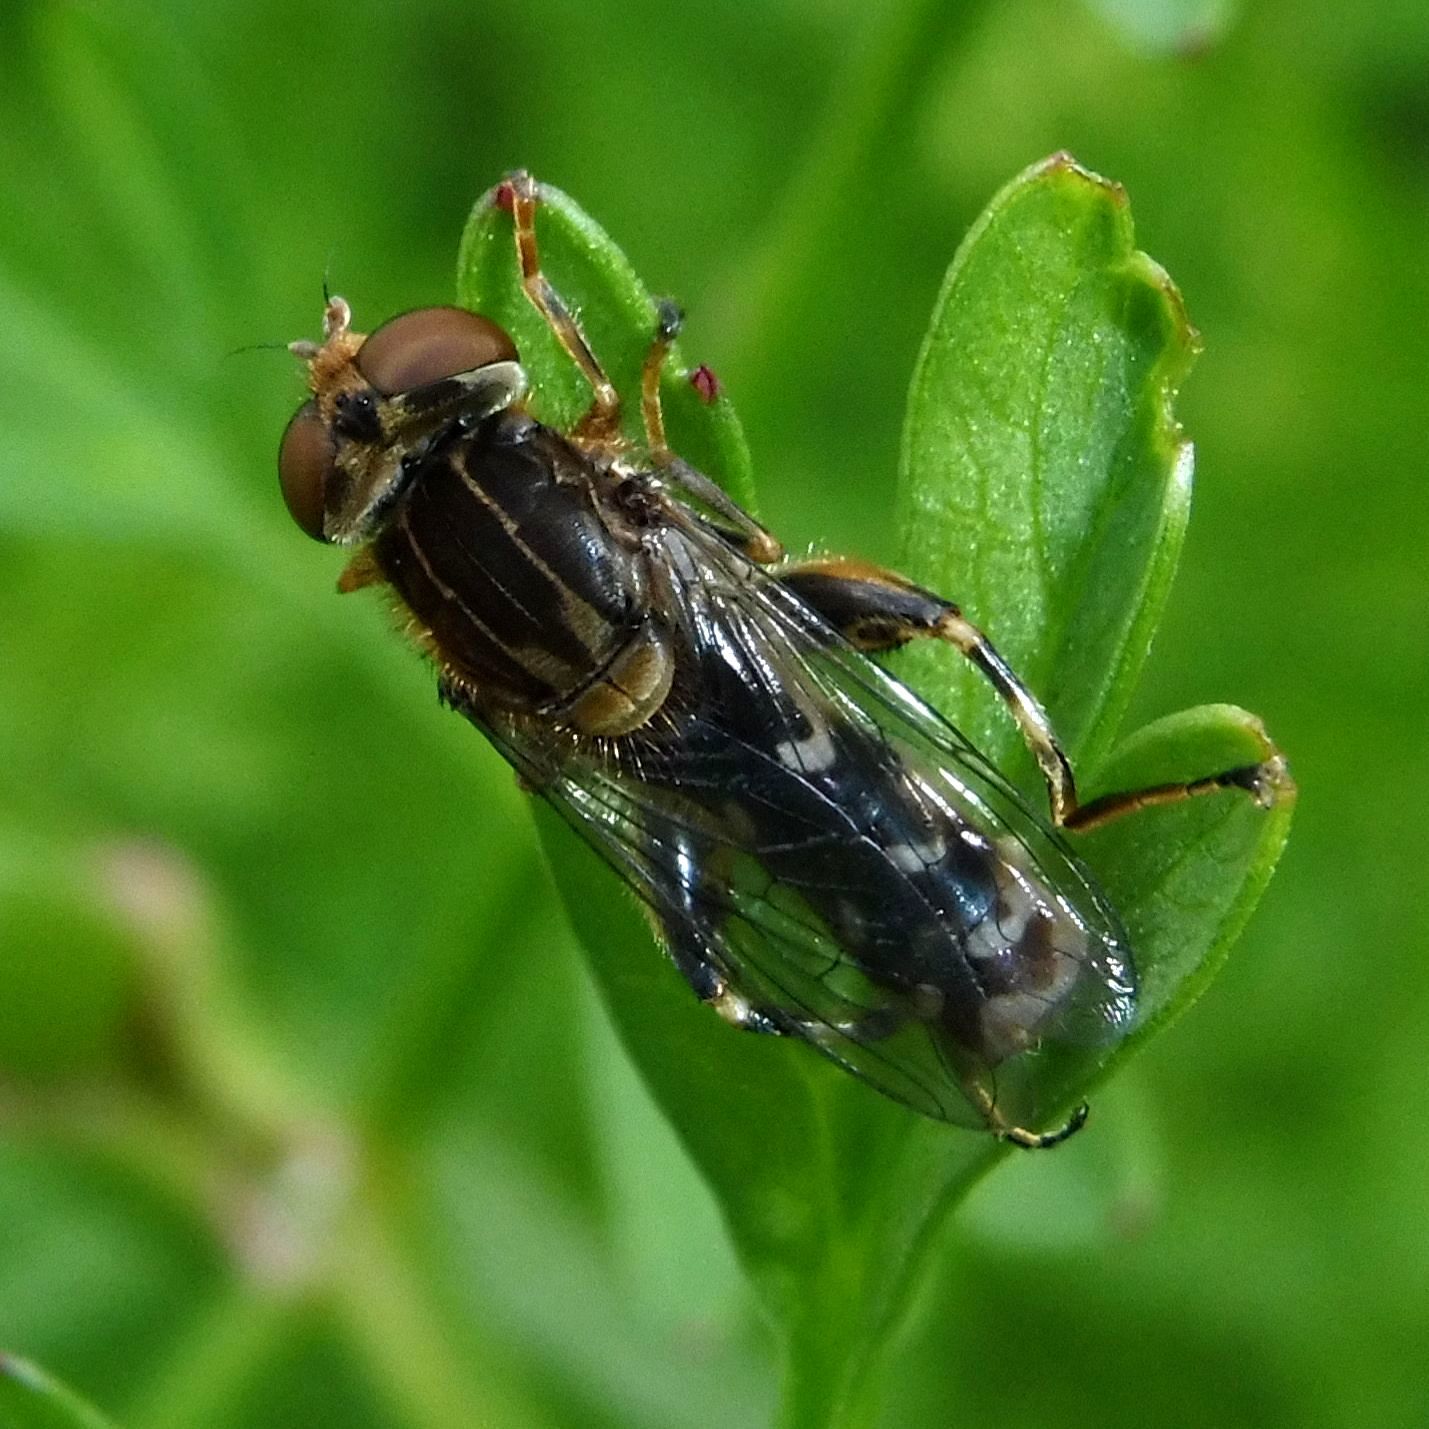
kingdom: Animalia
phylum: Arthropoda
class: Insecta
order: Diptera
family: Syrphidae
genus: Anasimyia
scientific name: Anasimyia contracta
